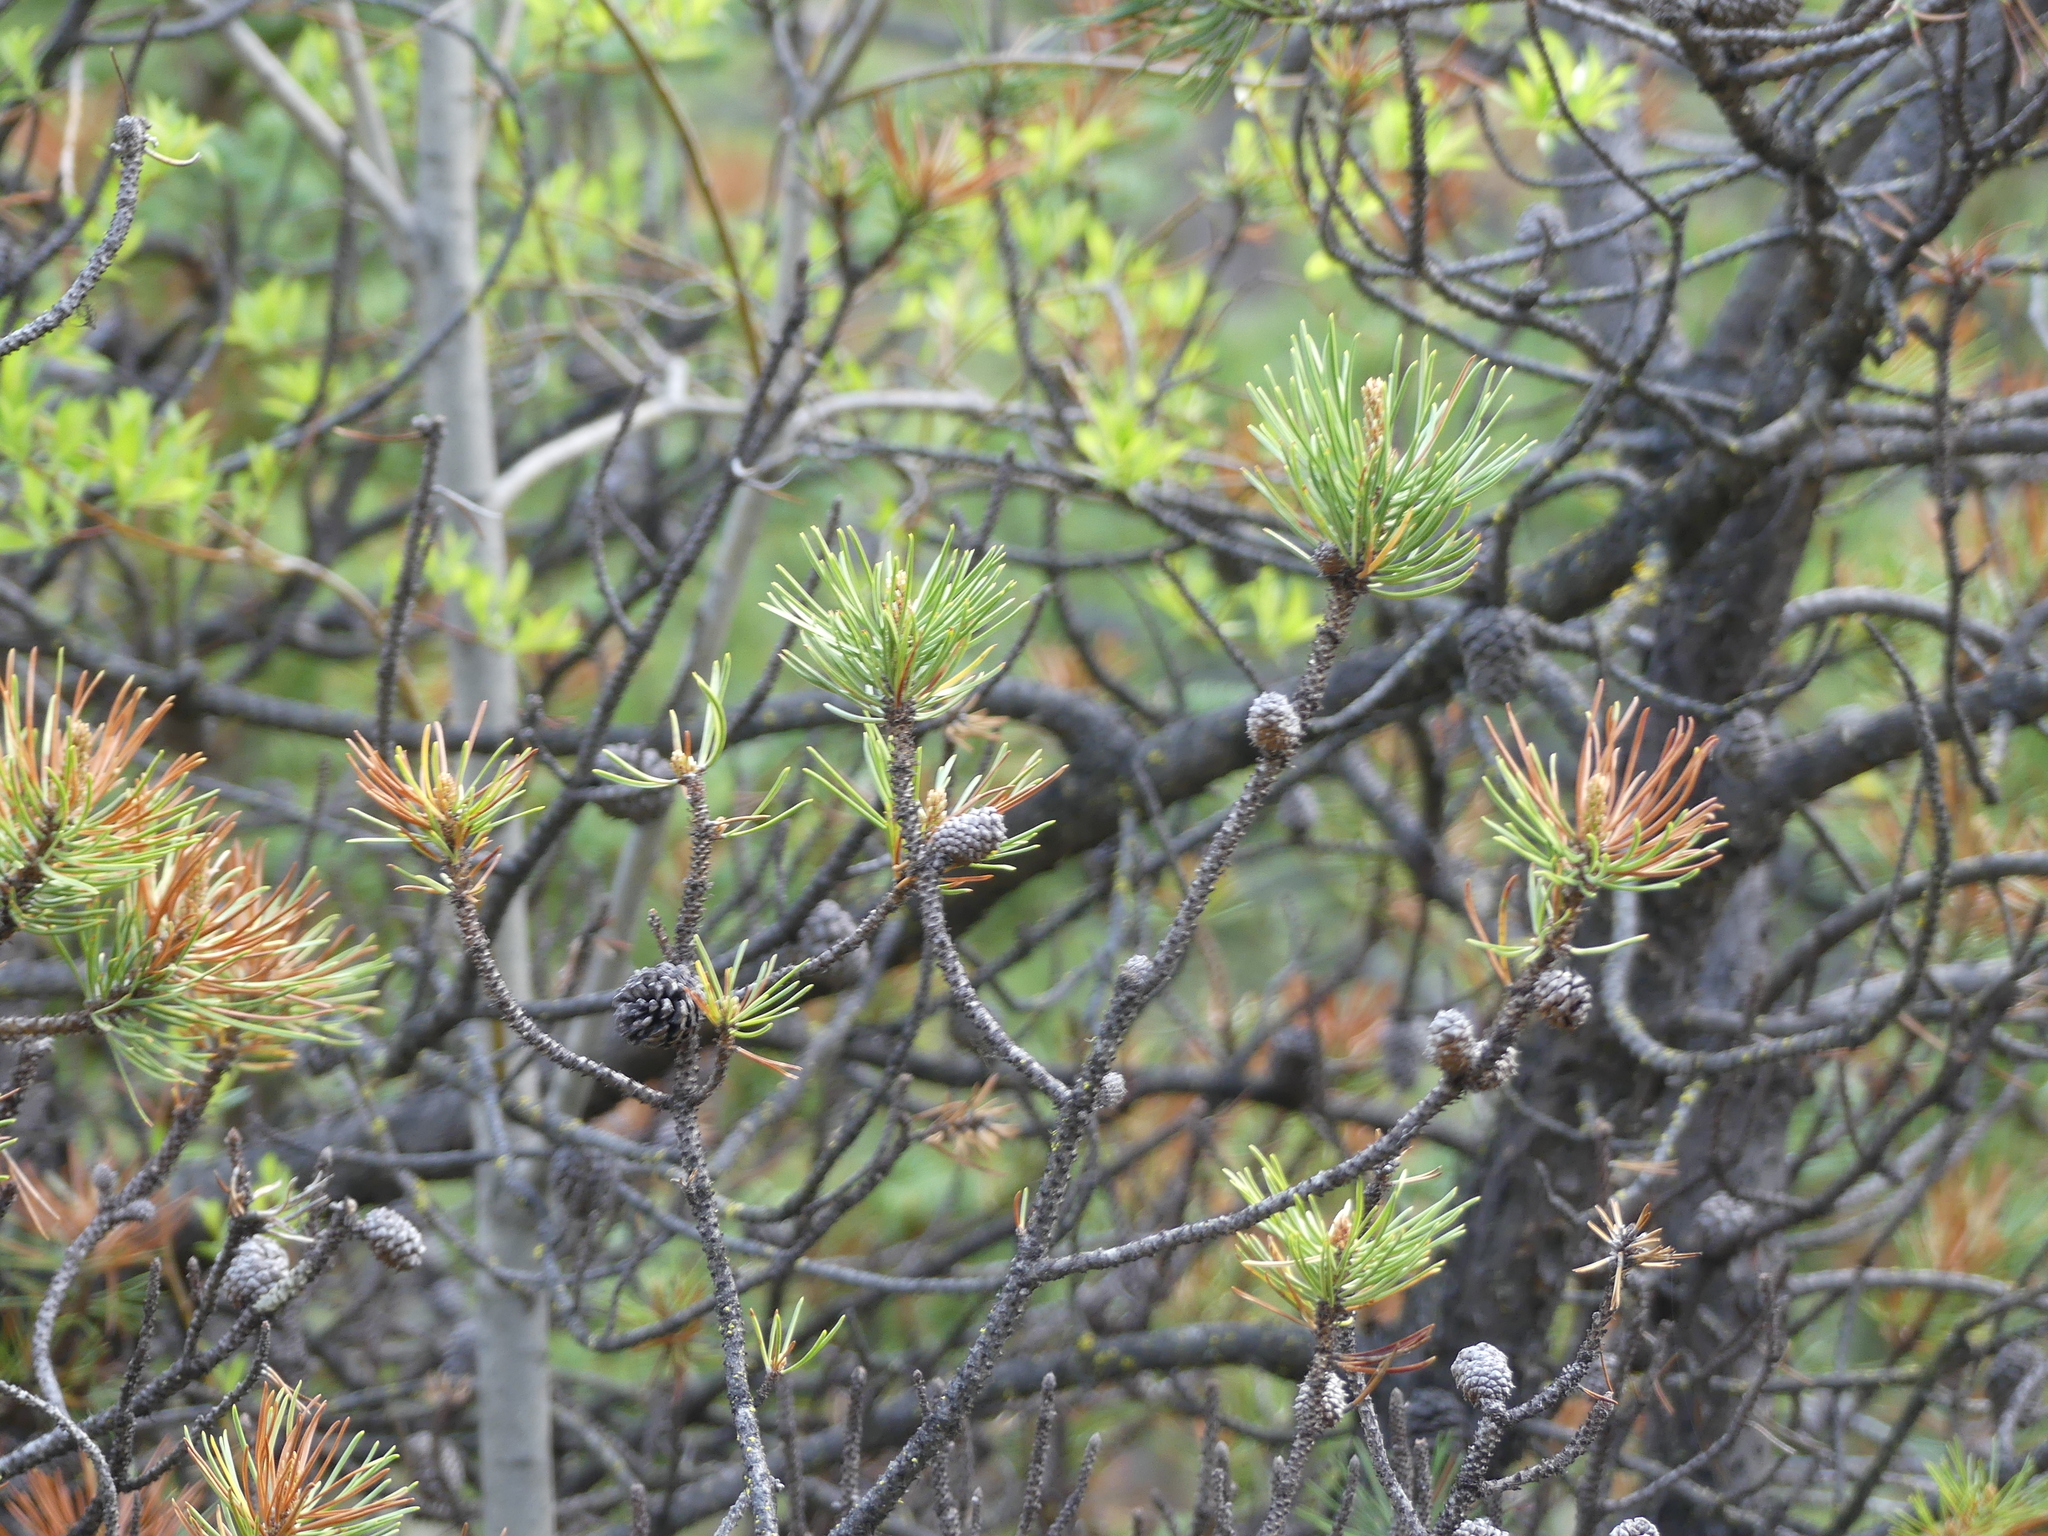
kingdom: Plantae
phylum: Tracheophyta
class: Pinopsida
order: Pinales
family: Pinaceae
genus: Pinus
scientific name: Pinus contorta
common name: Lodgepole pine
